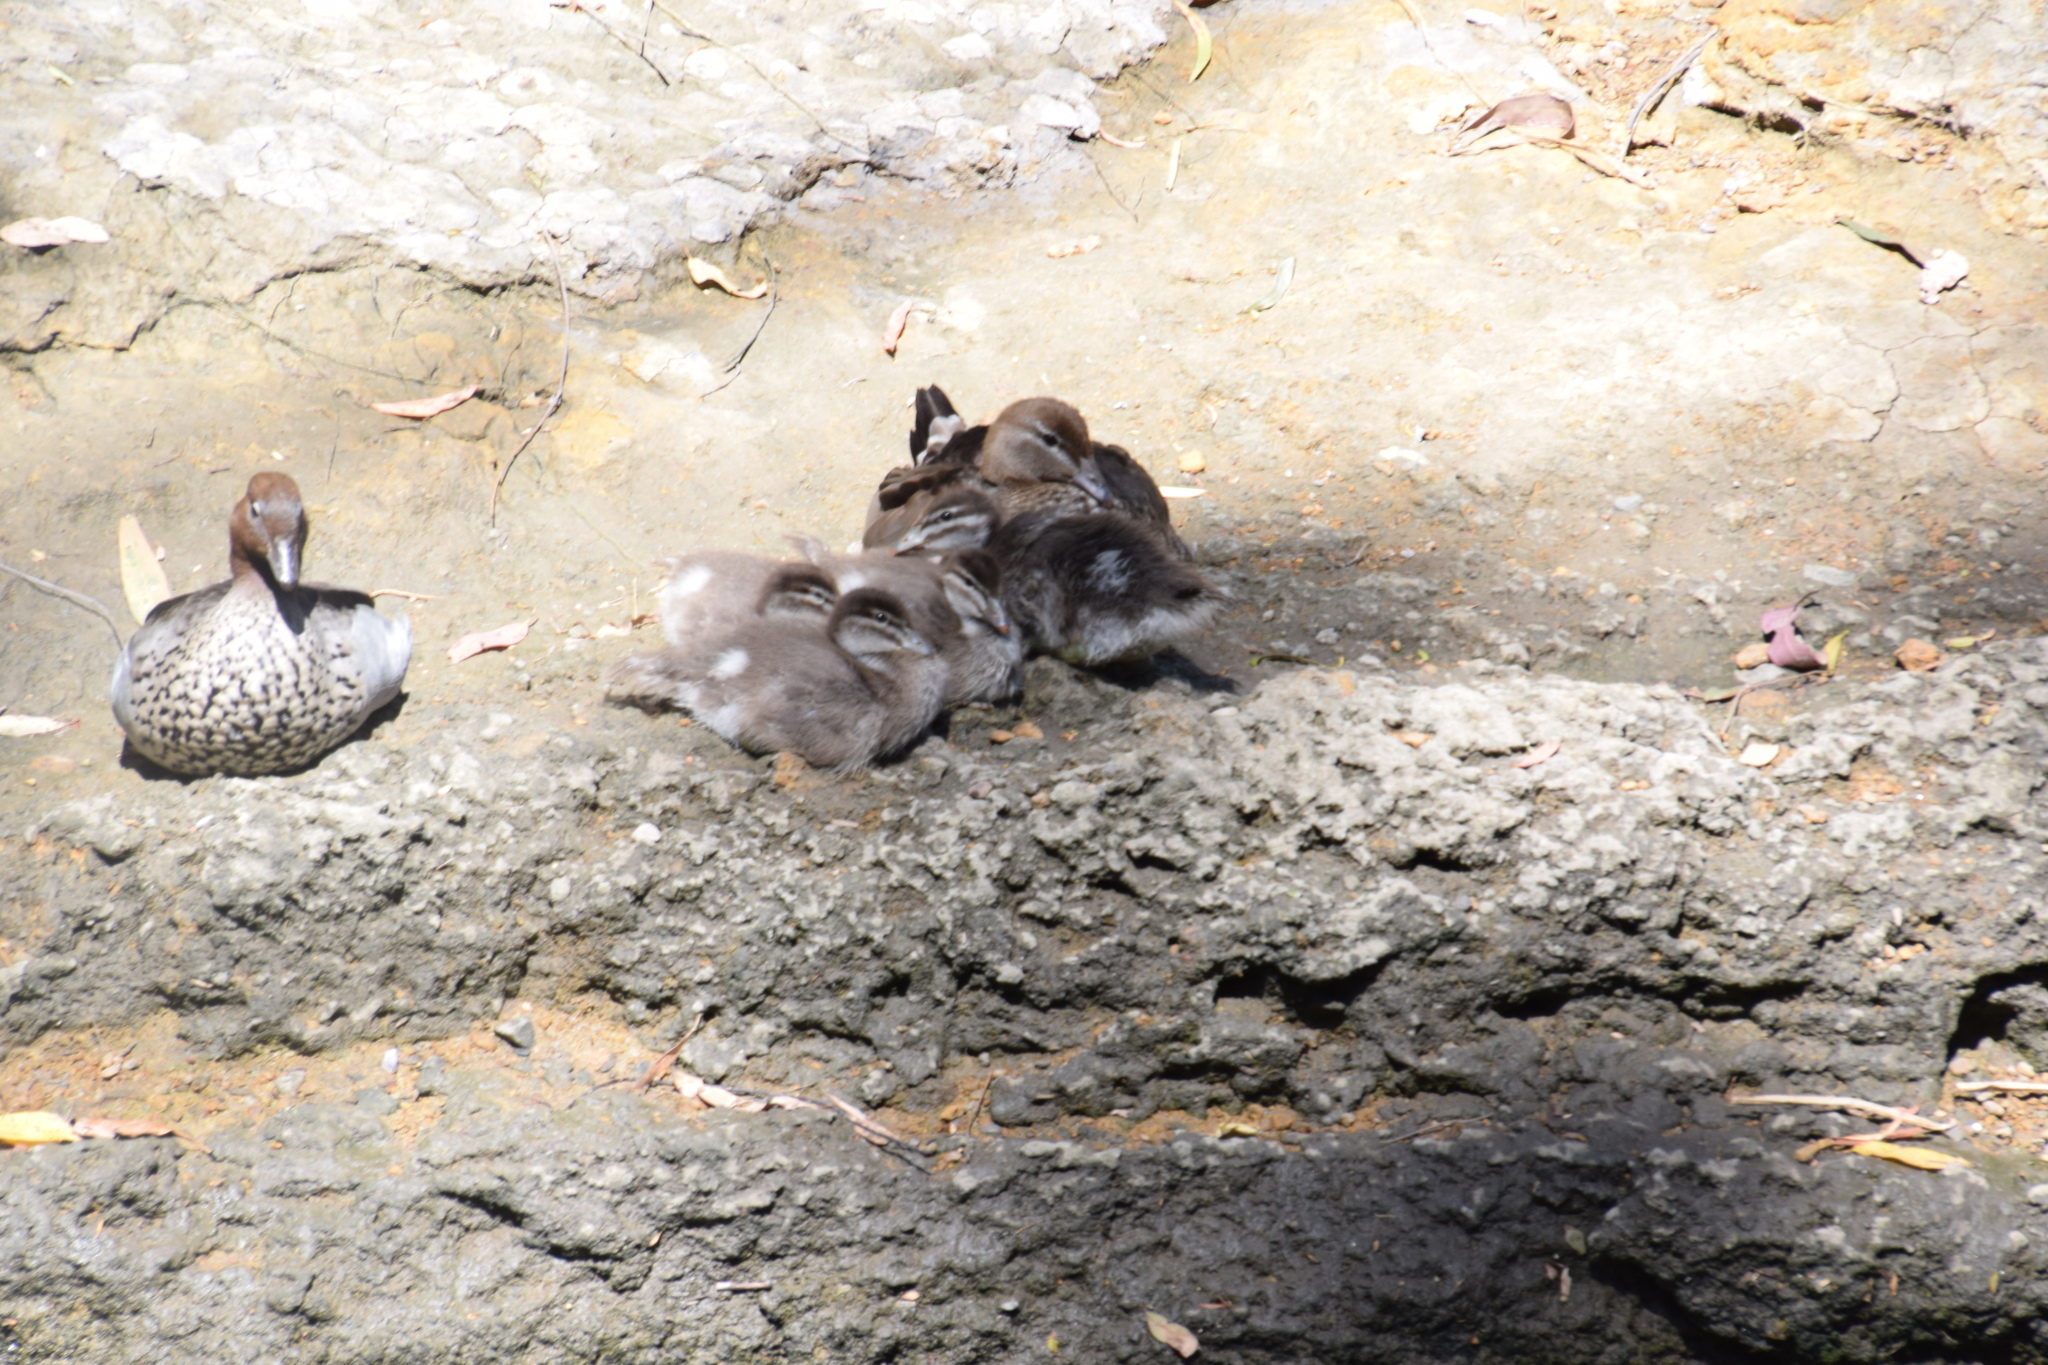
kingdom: Animalia
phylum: Chordata
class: Aves
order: Anseriformes
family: Anatidae
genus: Chenonetta
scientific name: Chenonetta jubata
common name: Maned duck
